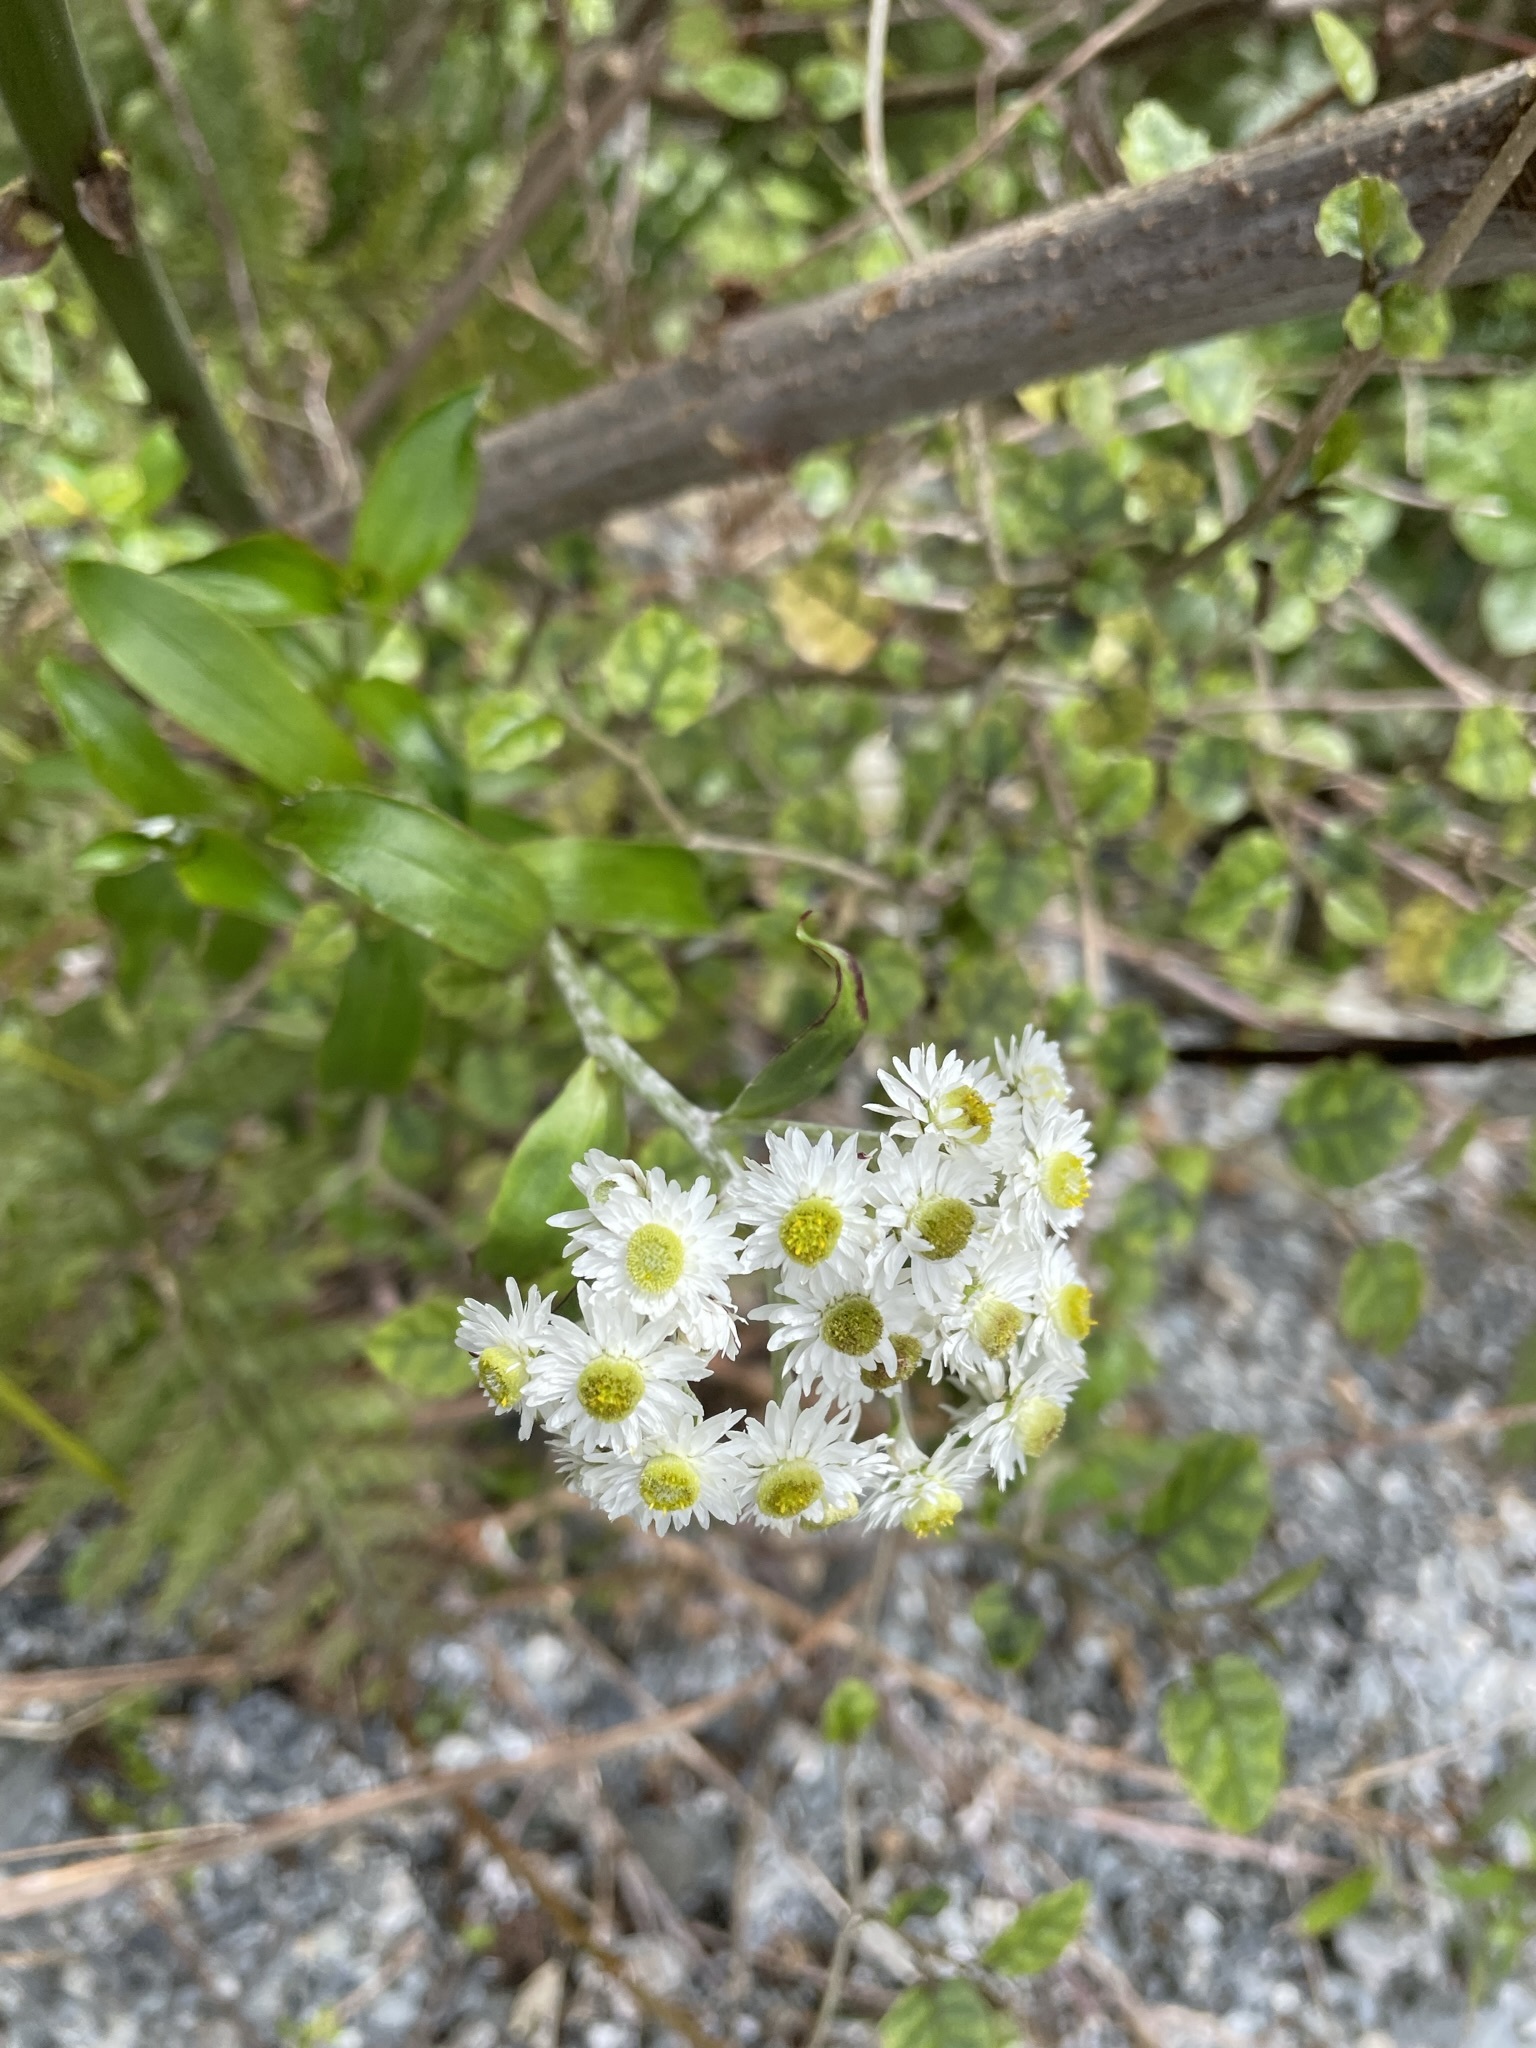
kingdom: Plantae
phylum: Tracheophyta
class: Magnoliopsida
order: Asterales
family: Asteraceae
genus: Anaphalioides
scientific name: Anaphalioides trinervis
